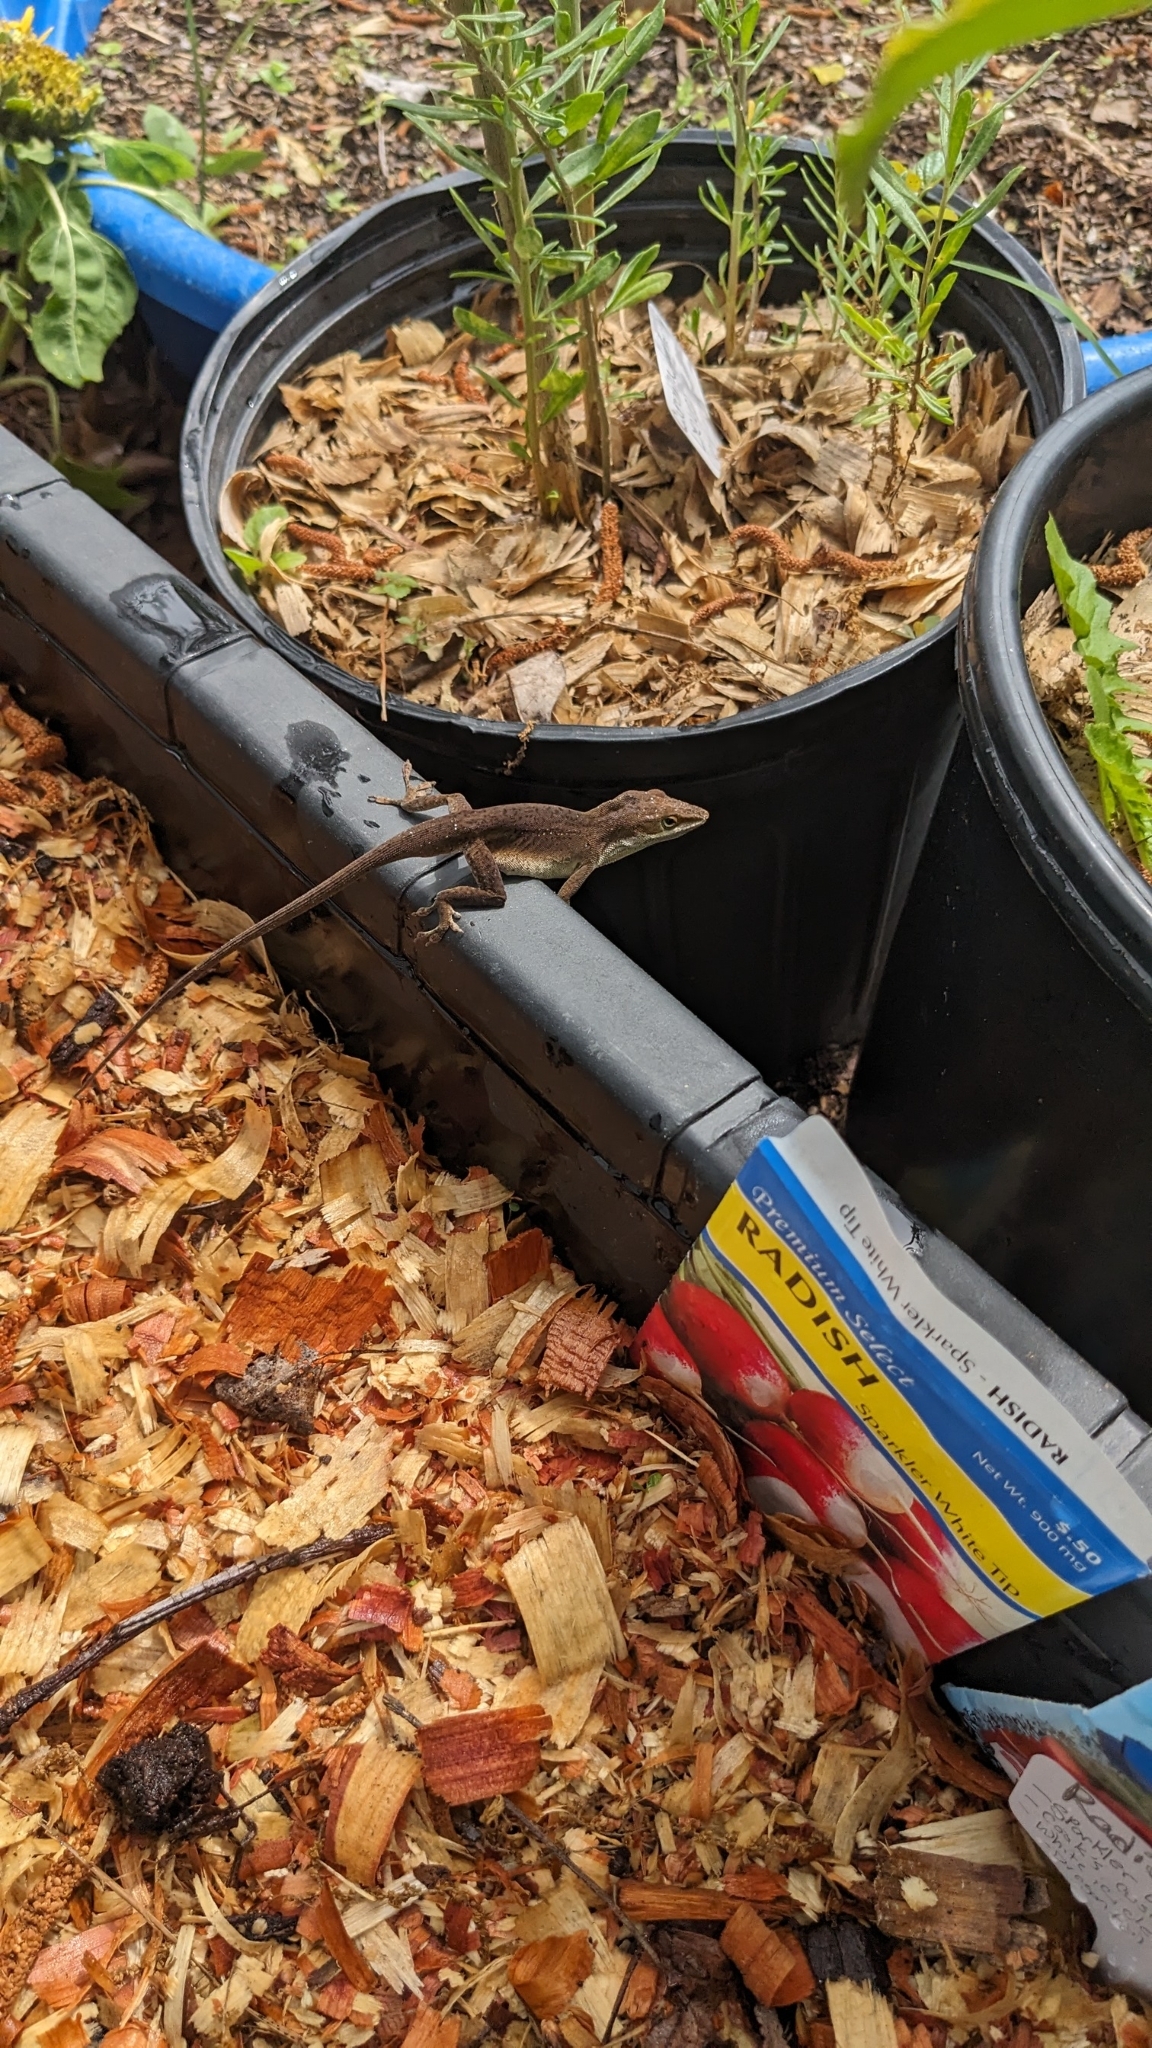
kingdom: Animalia
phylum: Chordata
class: Squamata
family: Dactyloidae
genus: Anolis
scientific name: Anolis carolinensis
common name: Green anole
